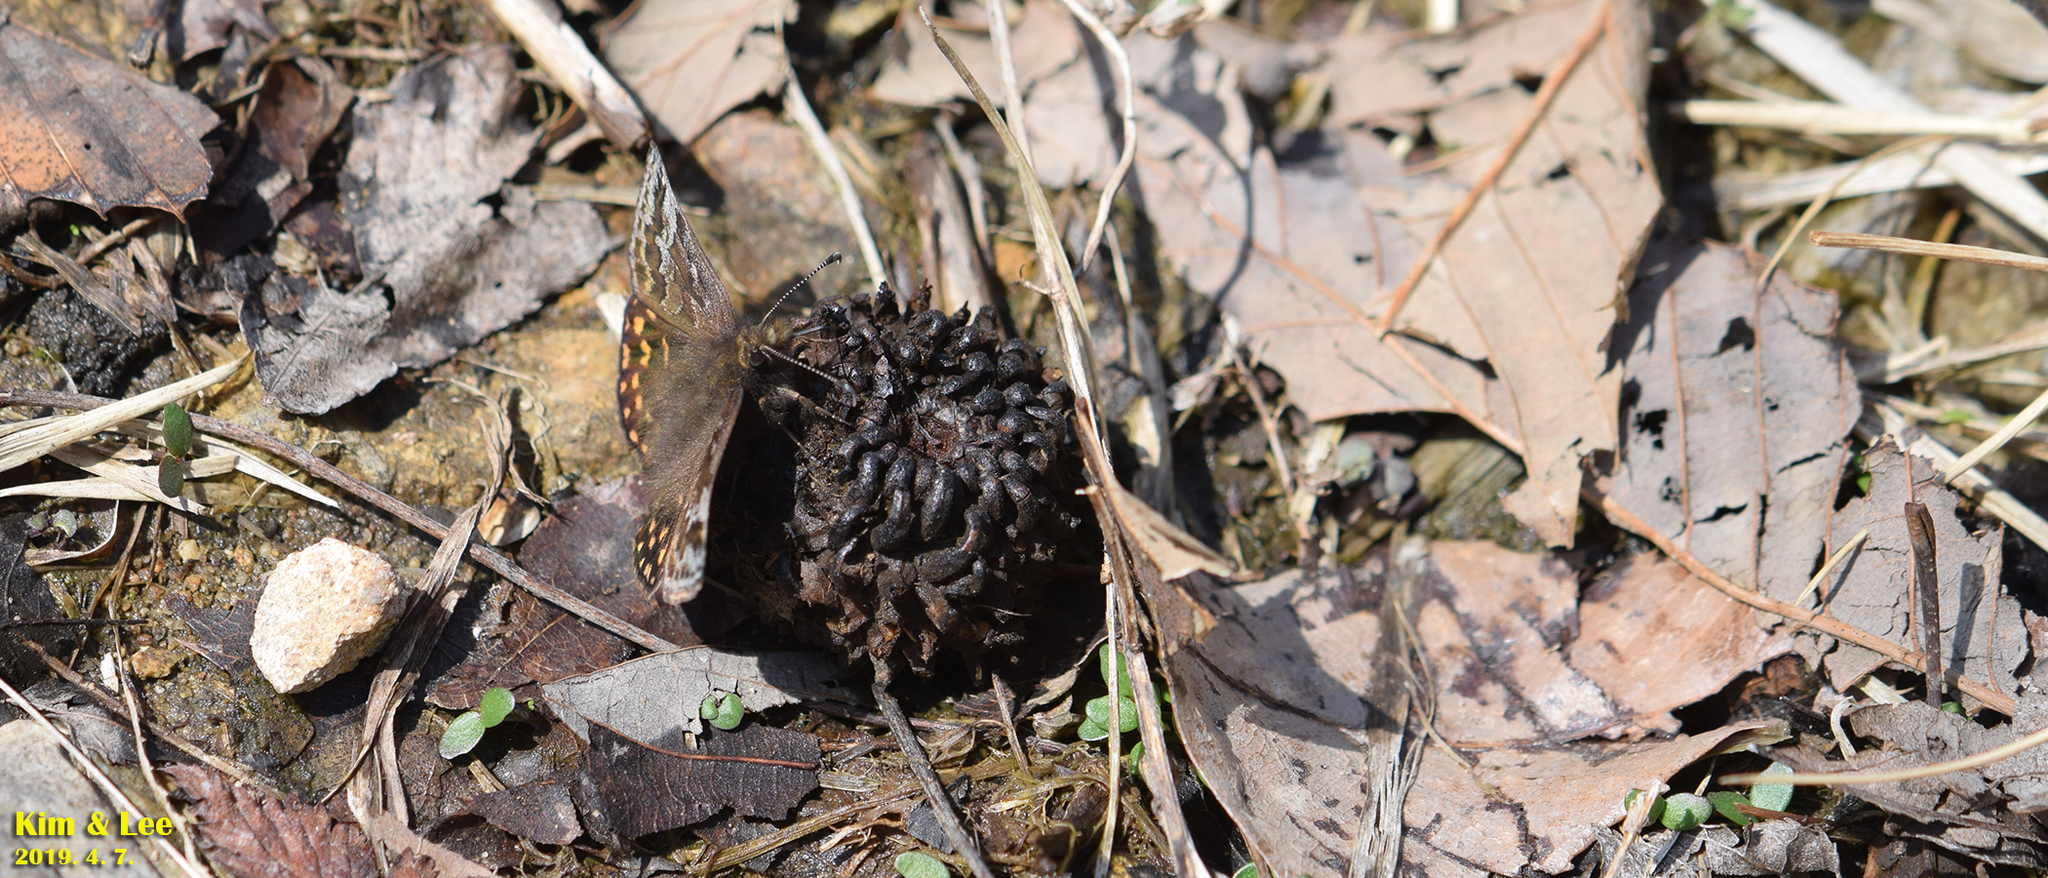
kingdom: Animalia
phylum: Arthropoda
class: Insecta
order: Lepidoptera
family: Hesperiidae
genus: Erynnis
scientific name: Erynnis montanus
